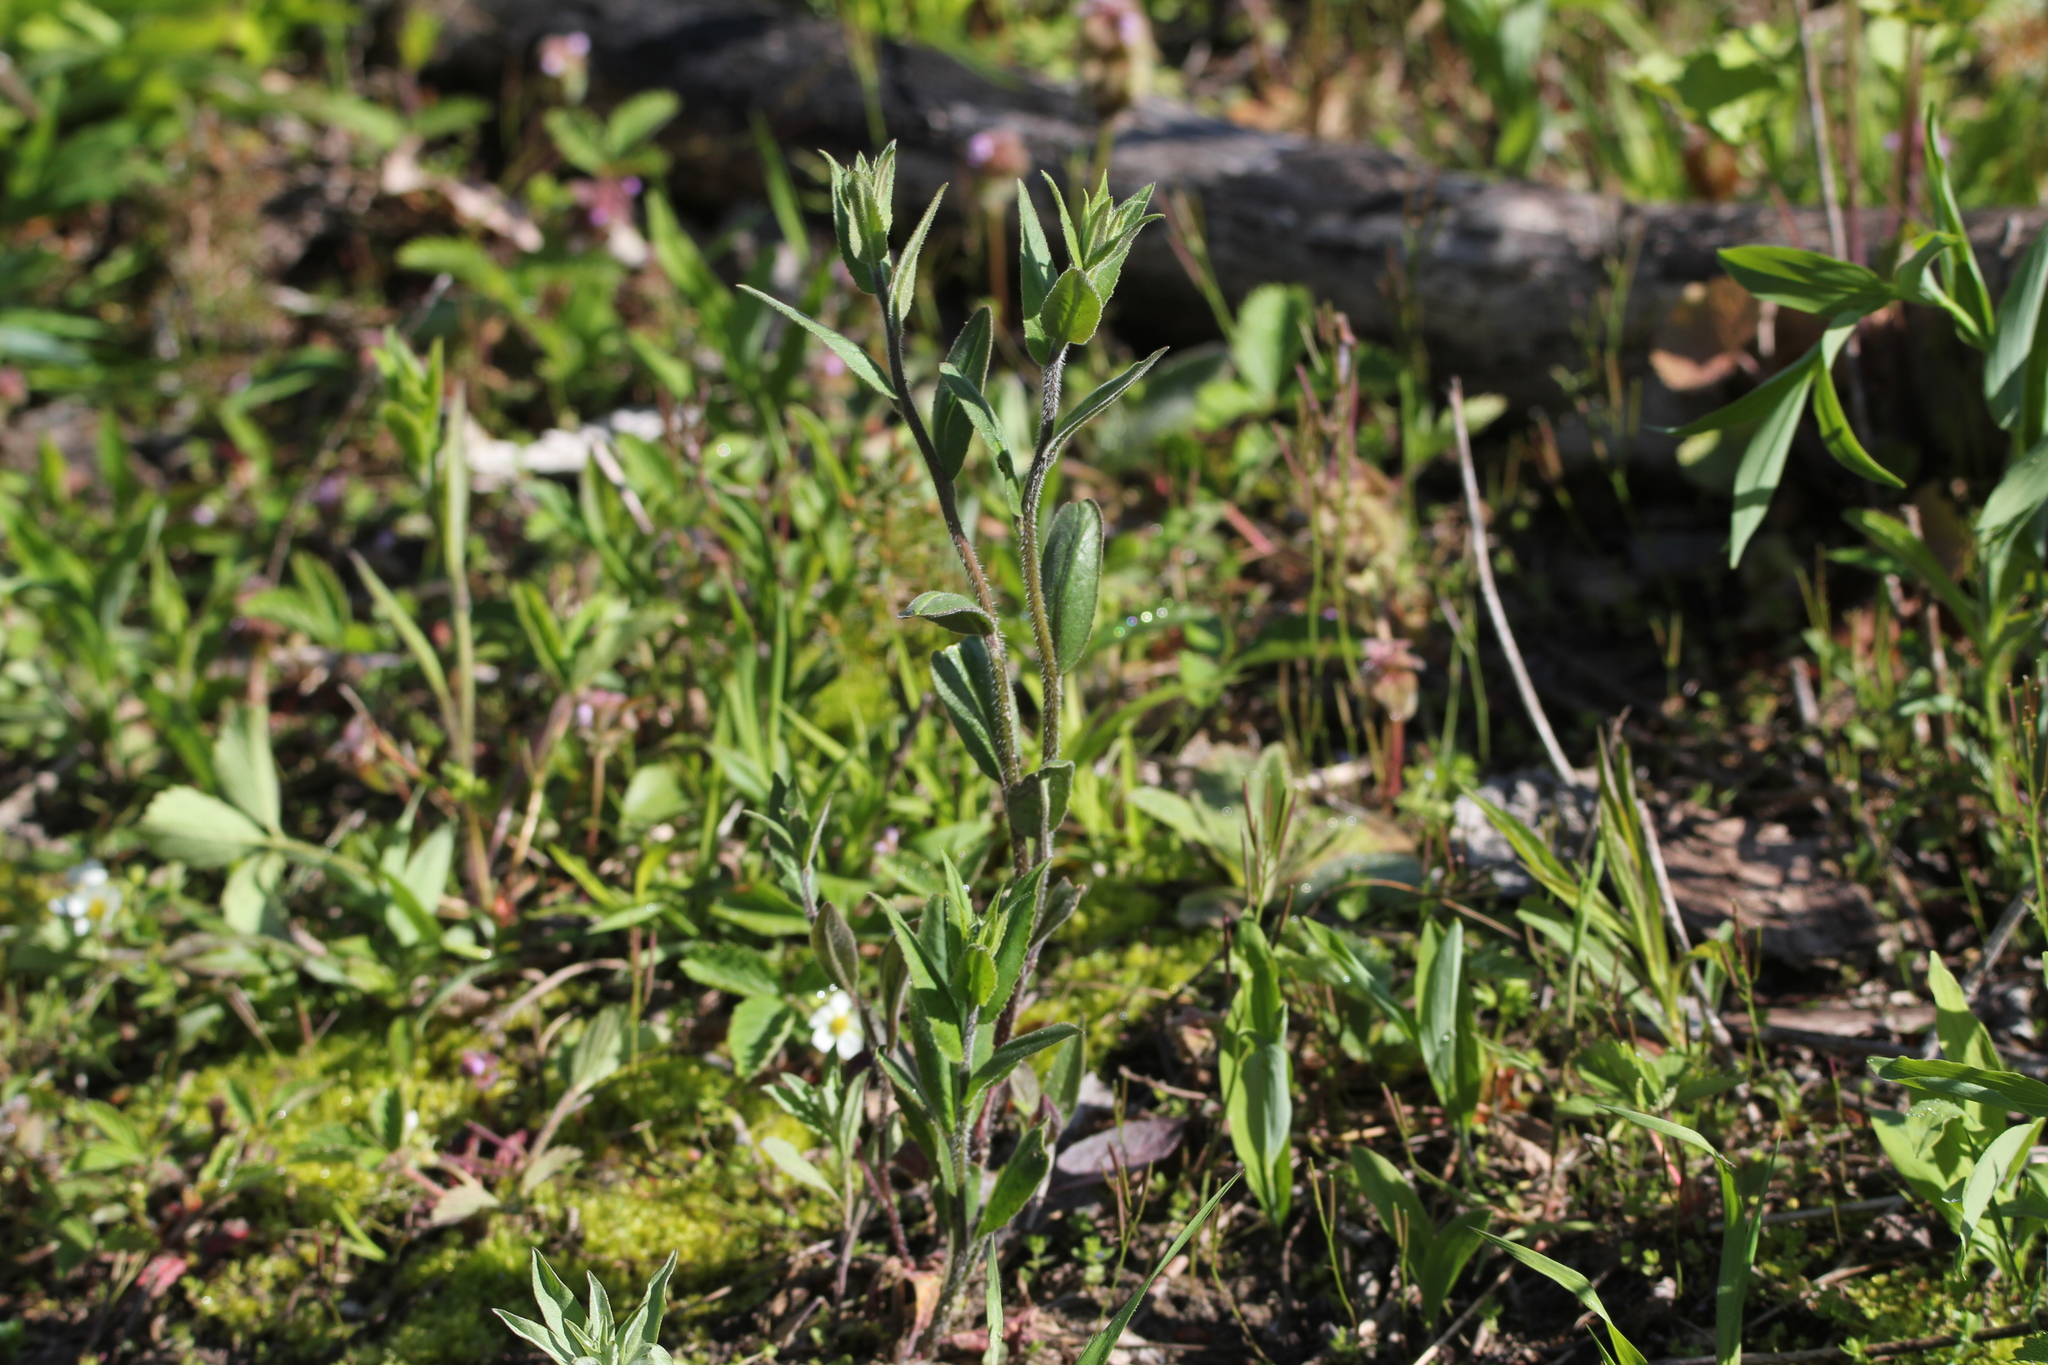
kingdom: Plantae
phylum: Tracheophyta
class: Magnoliopsida
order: Brassicales
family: Brassicaceae
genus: Hesperis
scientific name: Hesperis matronalis
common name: Dame's-violet
